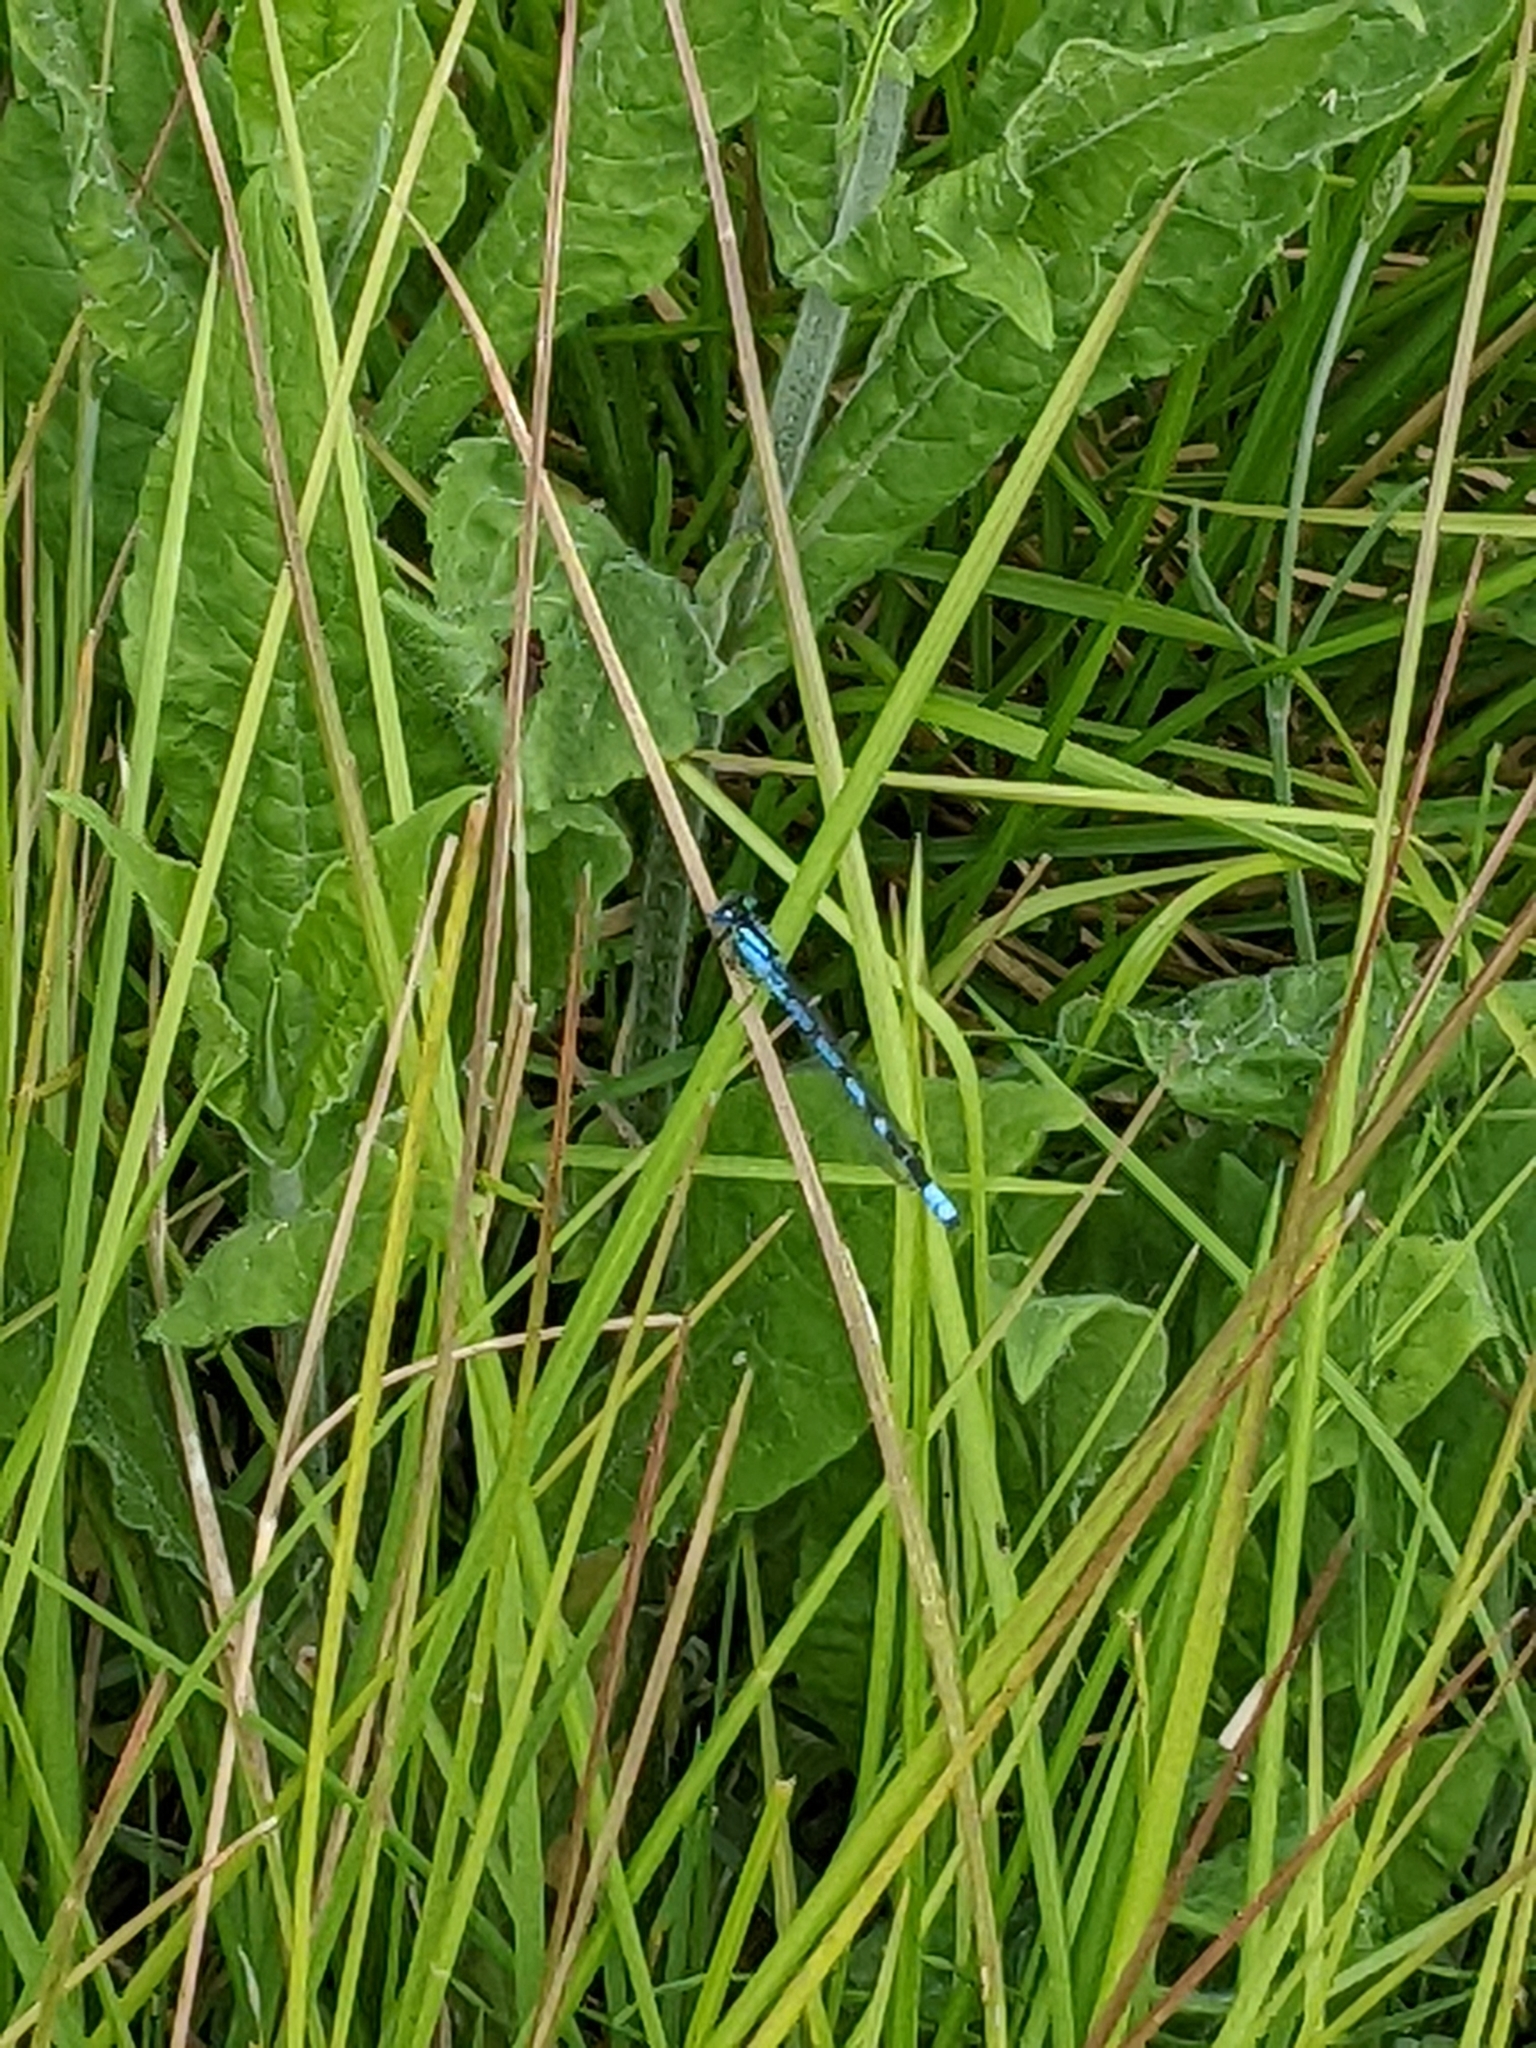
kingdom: Animalia
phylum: Arthropoda
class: Insecta
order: Odonata
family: Coenagrionidae
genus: Enallagma
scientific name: Enallagma cyathigerum
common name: Common blue damselfly
